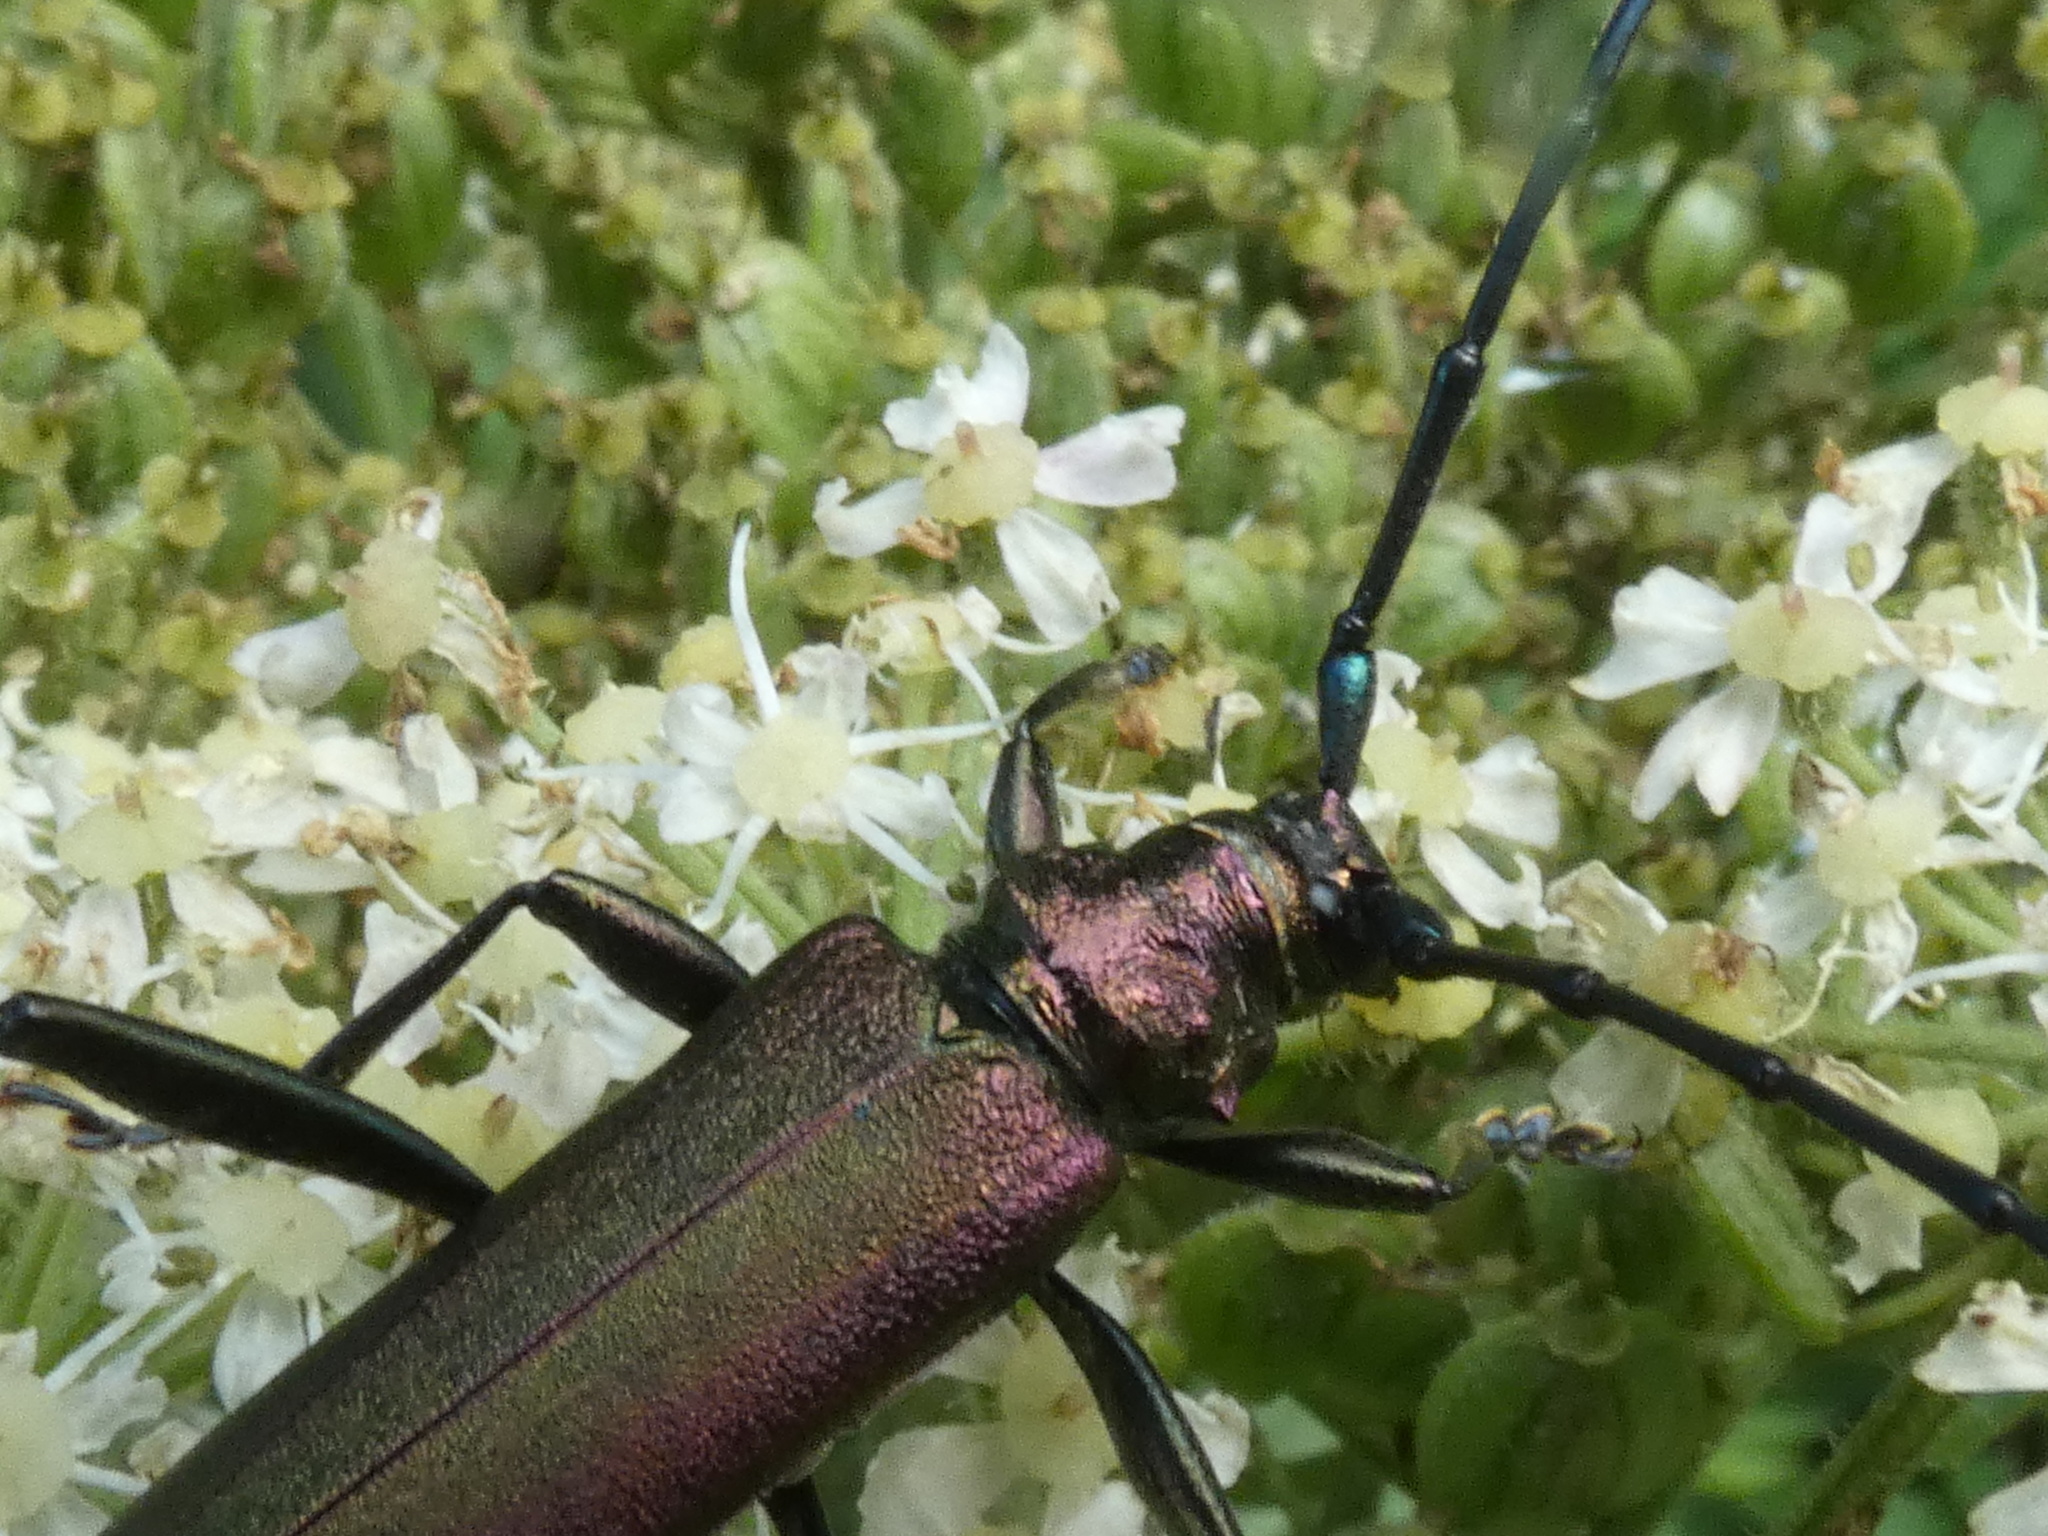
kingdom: Animalia
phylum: Arthropoda
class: Insecta
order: Coleoptera
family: Cerambycidae
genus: Aromia
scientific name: Aromia moschata
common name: Musk beetle
